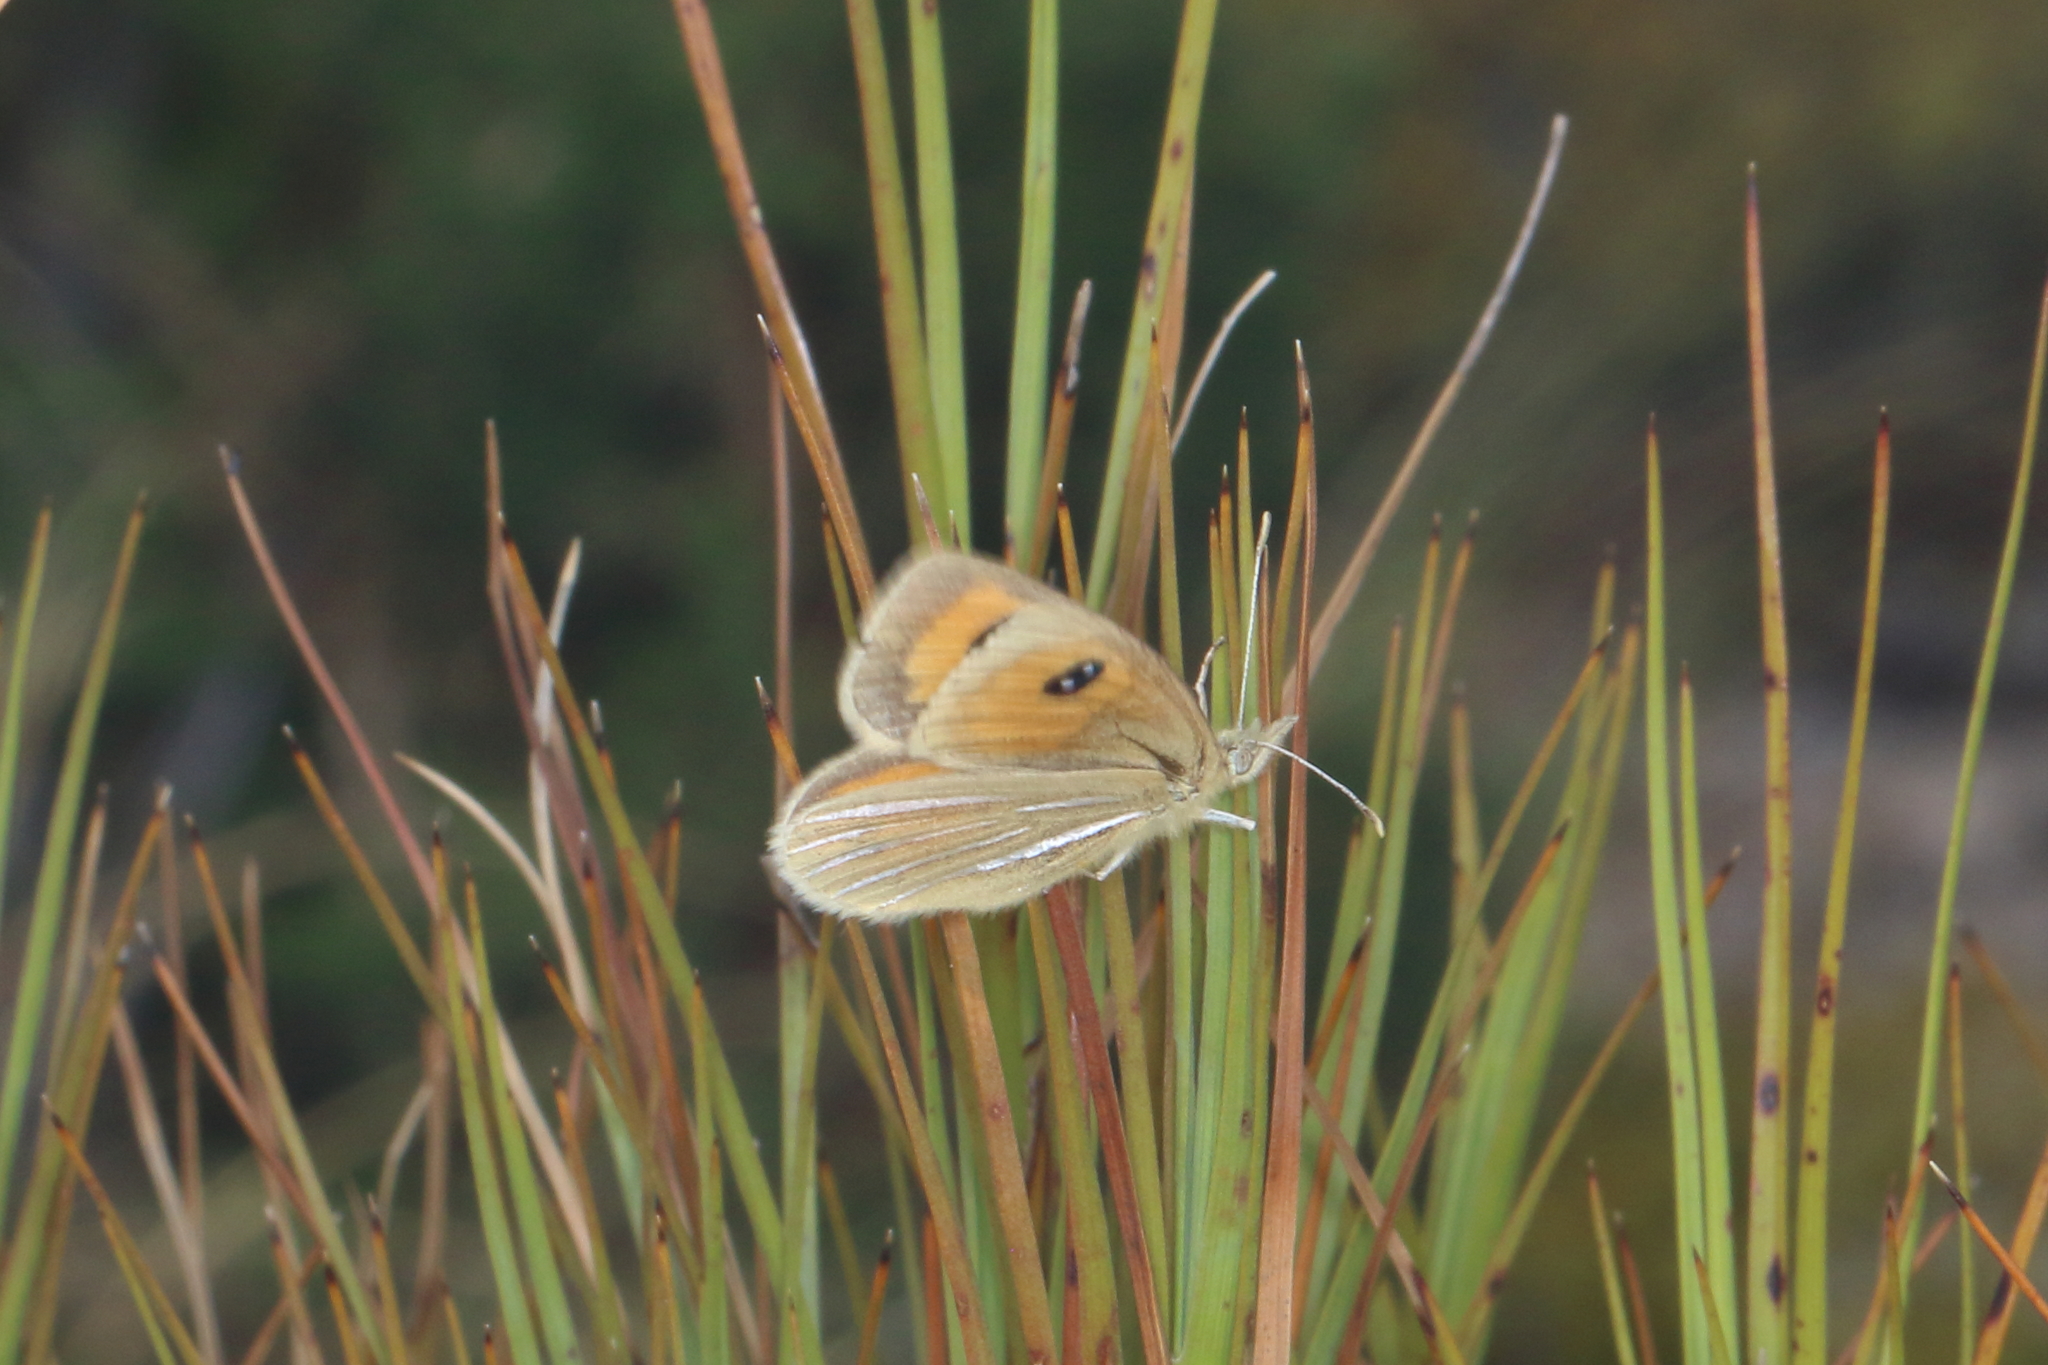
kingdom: Animalia
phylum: Arthropoda
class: Insecta
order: Lepidoptera
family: Nymphalidae
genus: Argyrophenga
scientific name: Argyrophenga janitae
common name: Janita's tussock
